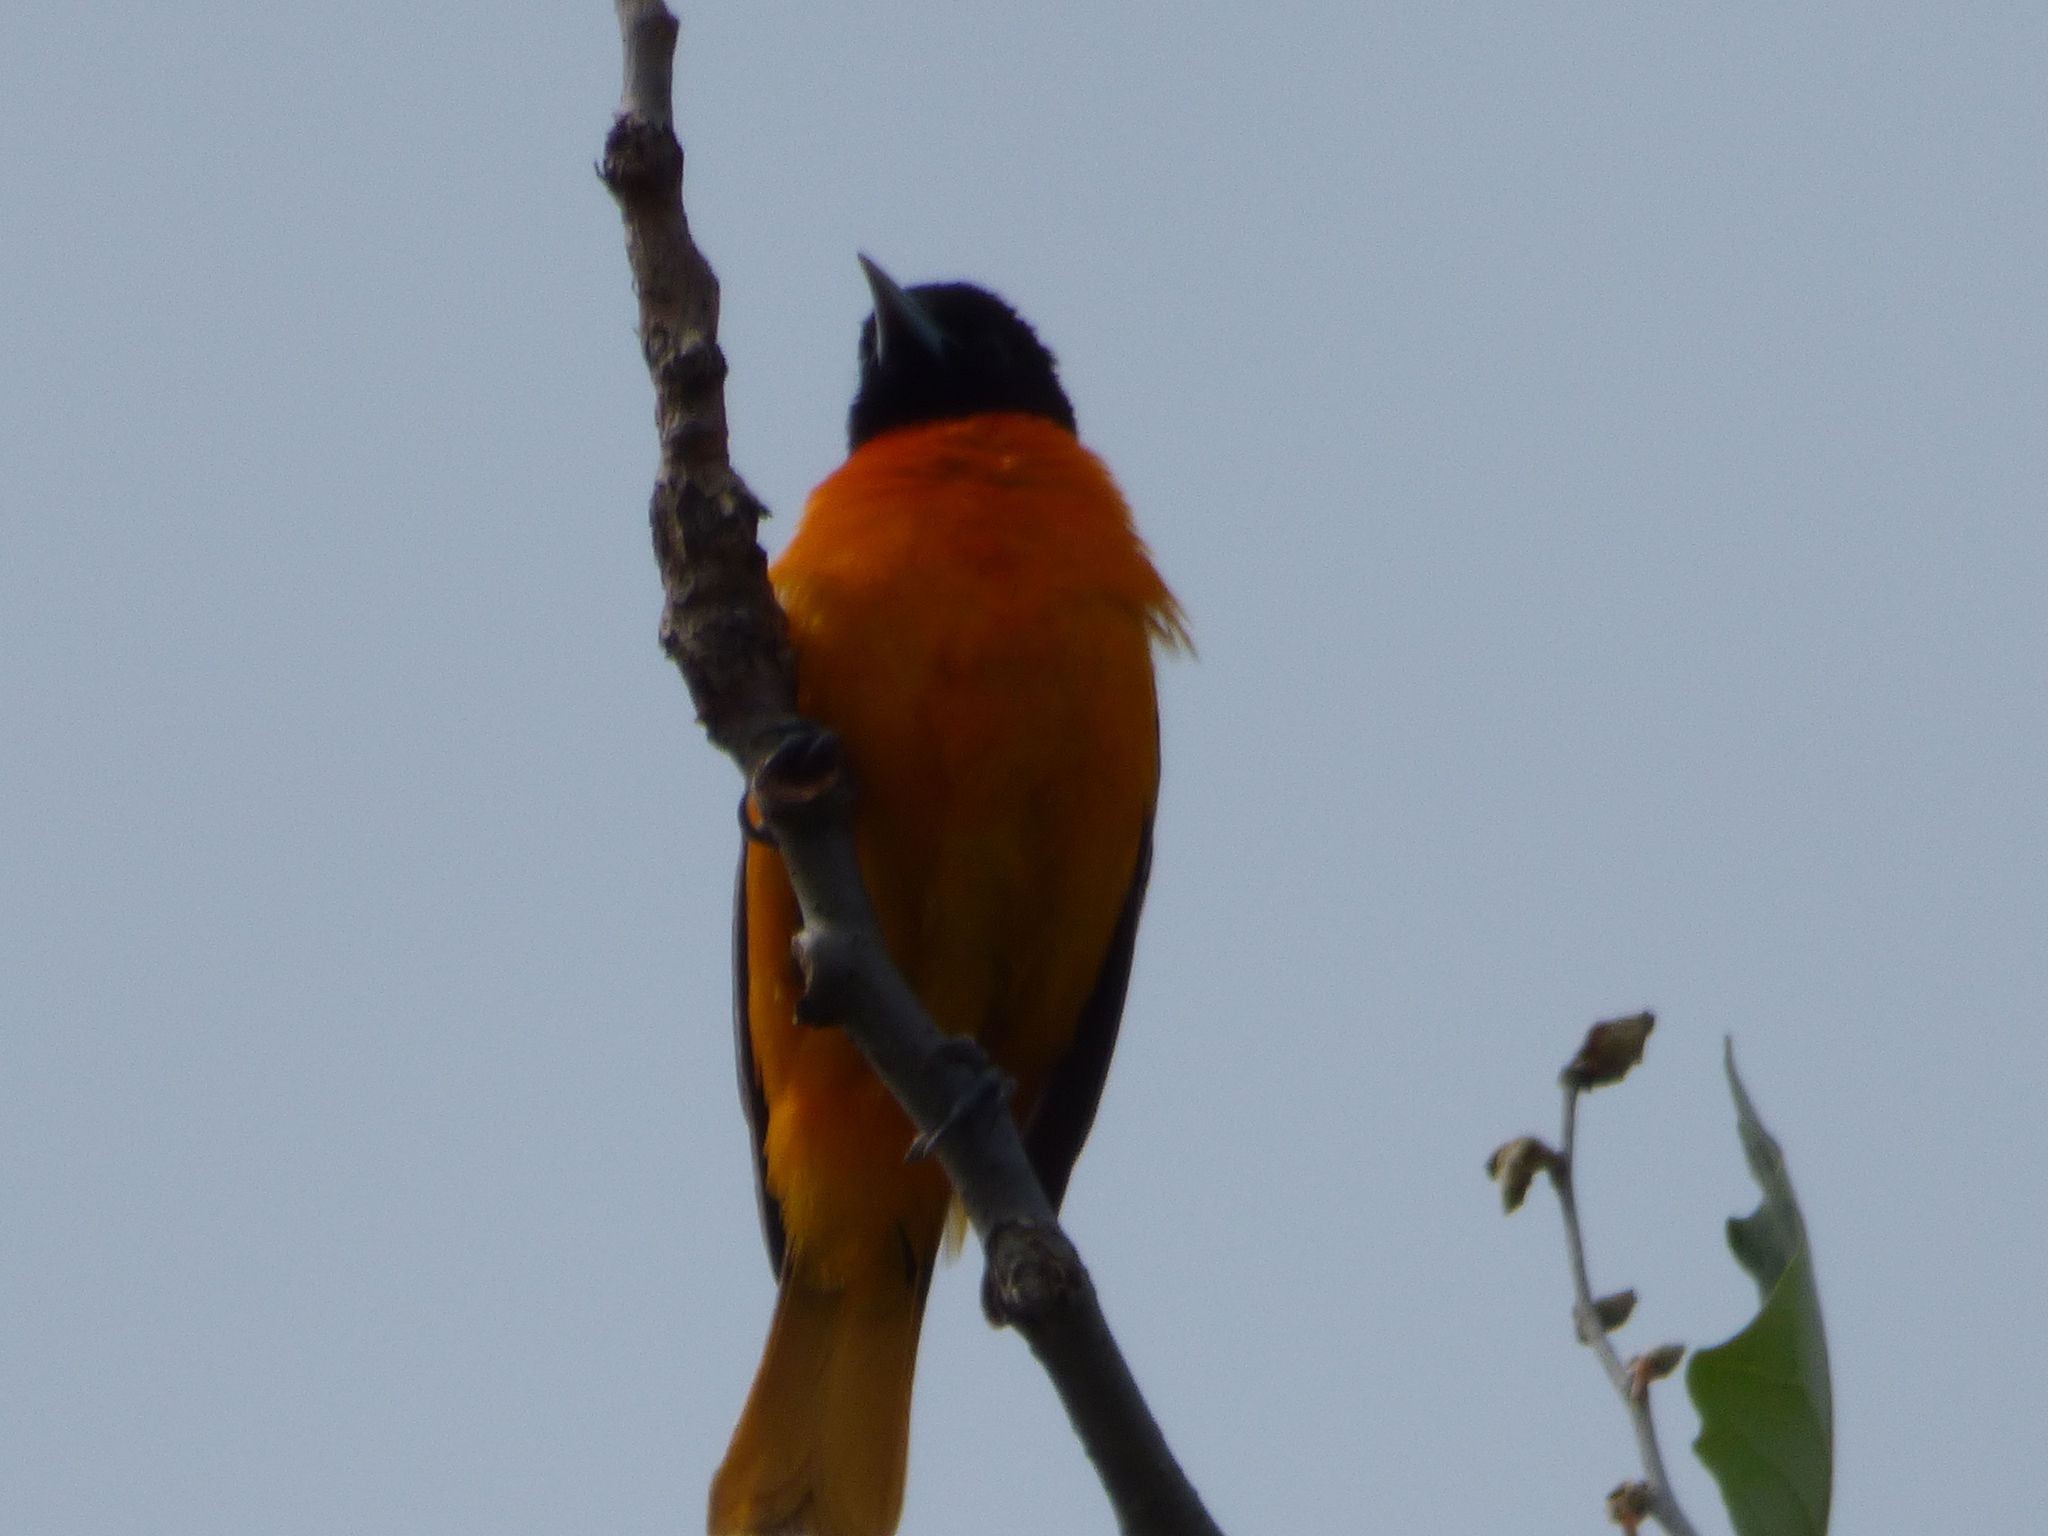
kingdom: Animalia
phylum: Chordata
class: Aves
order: Passeriformes
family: Icteridae
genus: Icterus
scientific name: Icterus galbula
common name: Baltimore oriole
